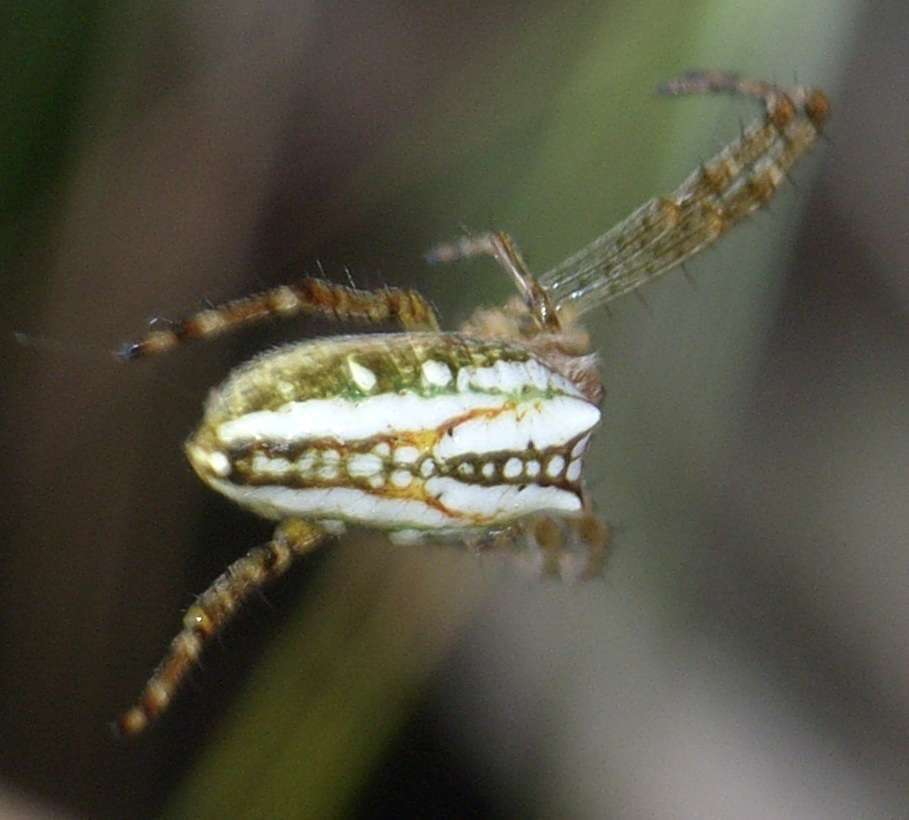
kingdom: Animalia
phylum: Arthropoda
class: Arachnida
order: Araneae
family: Araneidae
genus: Plebs
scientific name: Plebs bradleyi
